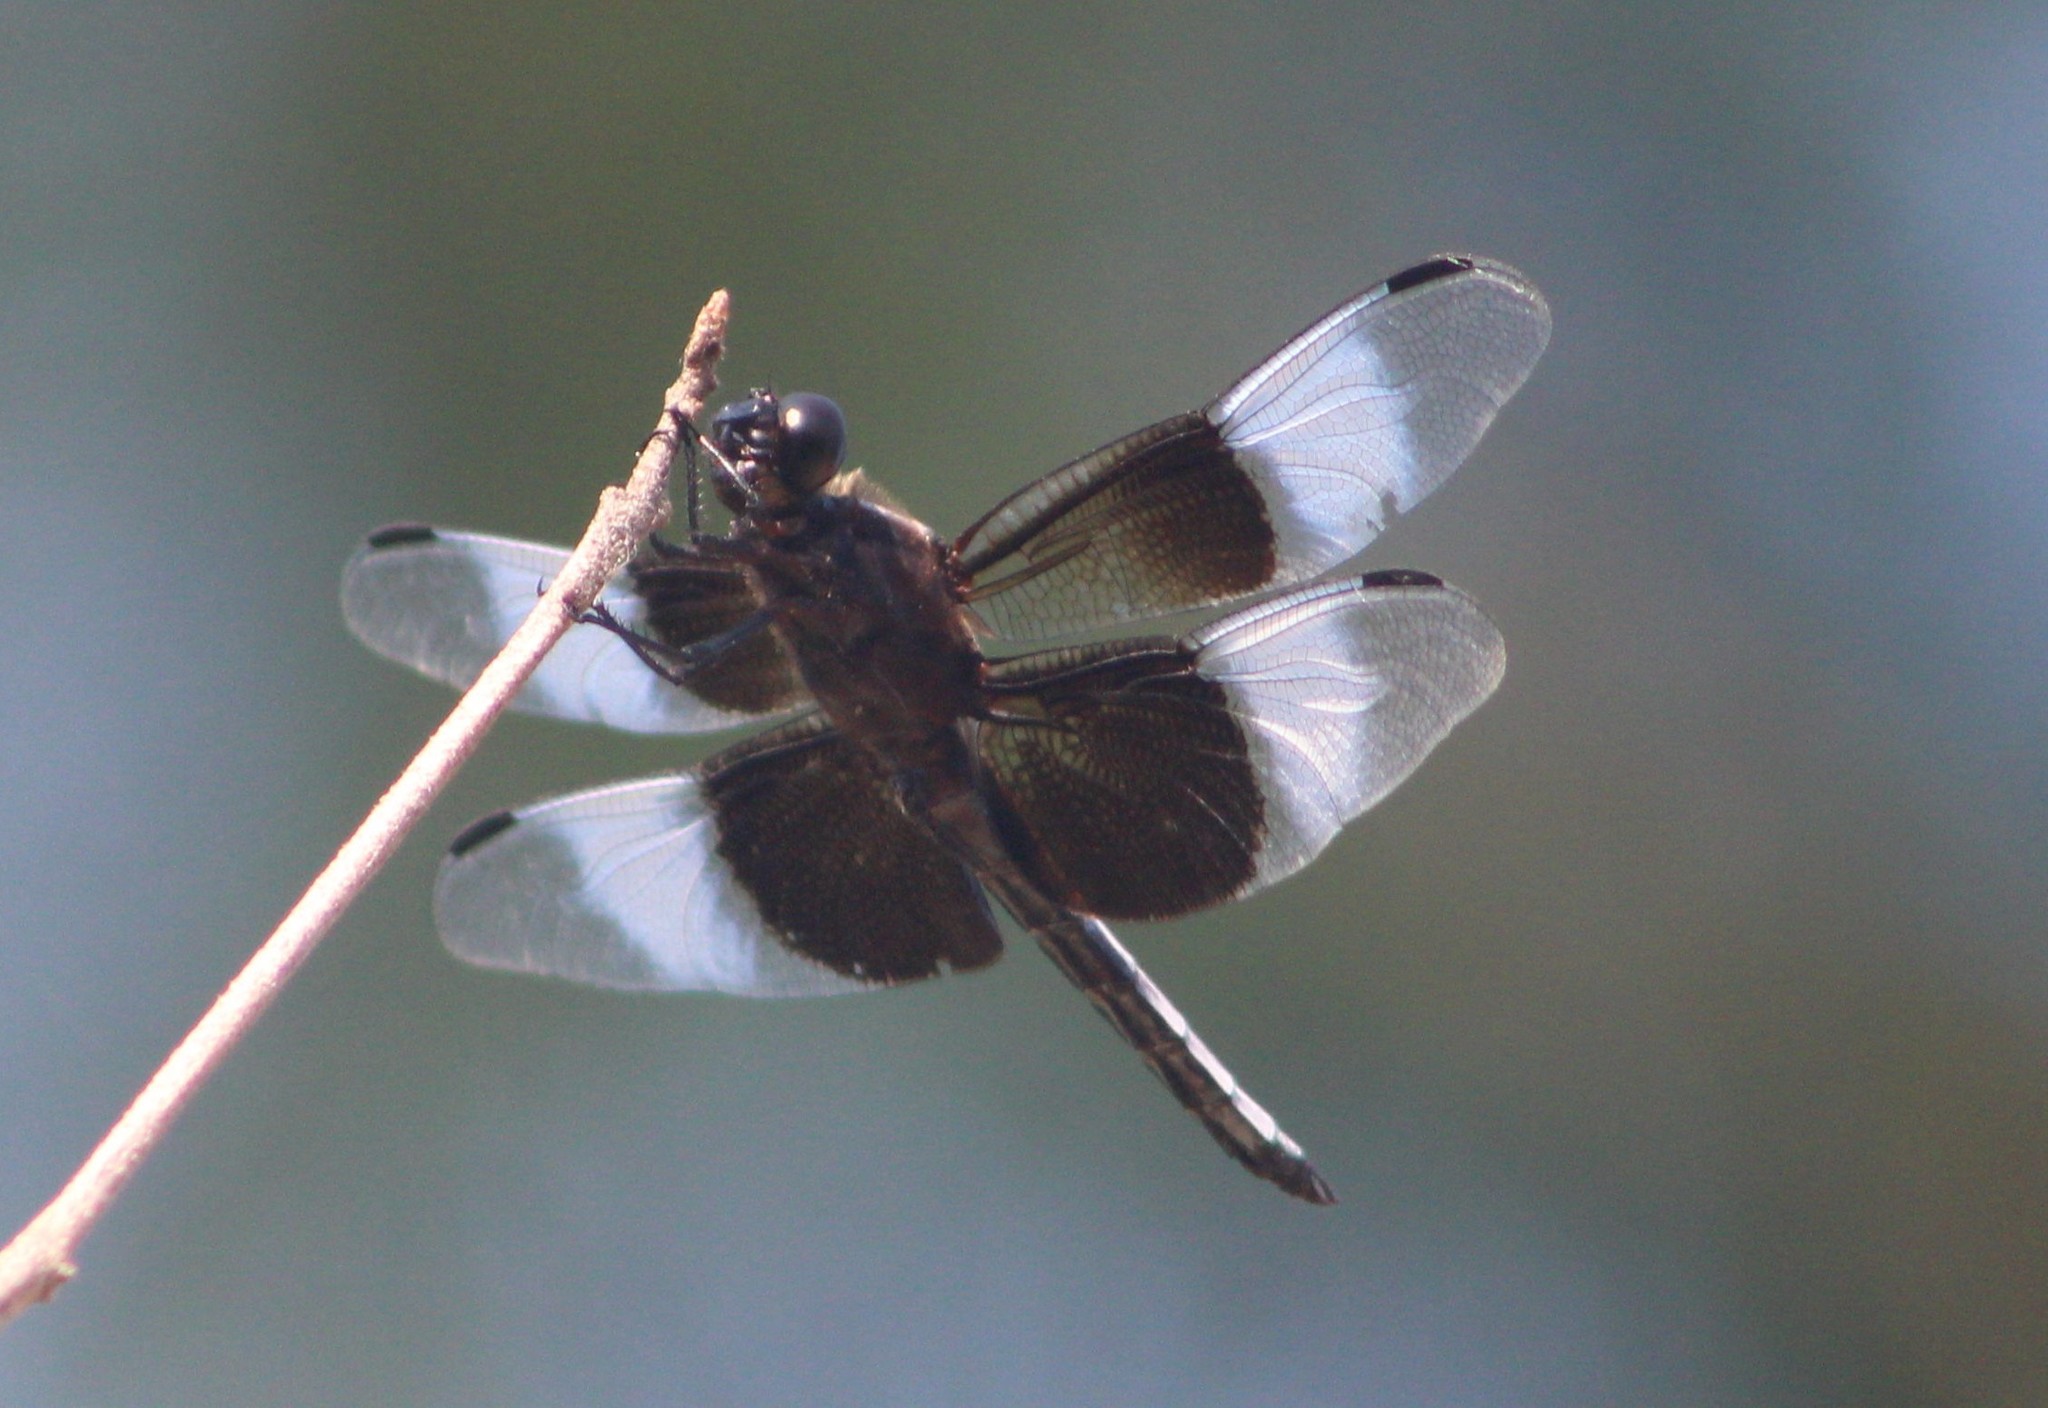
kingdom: Animalia
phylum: Arthropoda
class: Insecta
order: Odonata
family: Libellulidae
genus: Libellula
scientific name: Libellula luctuosa
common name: Widow skimmer
